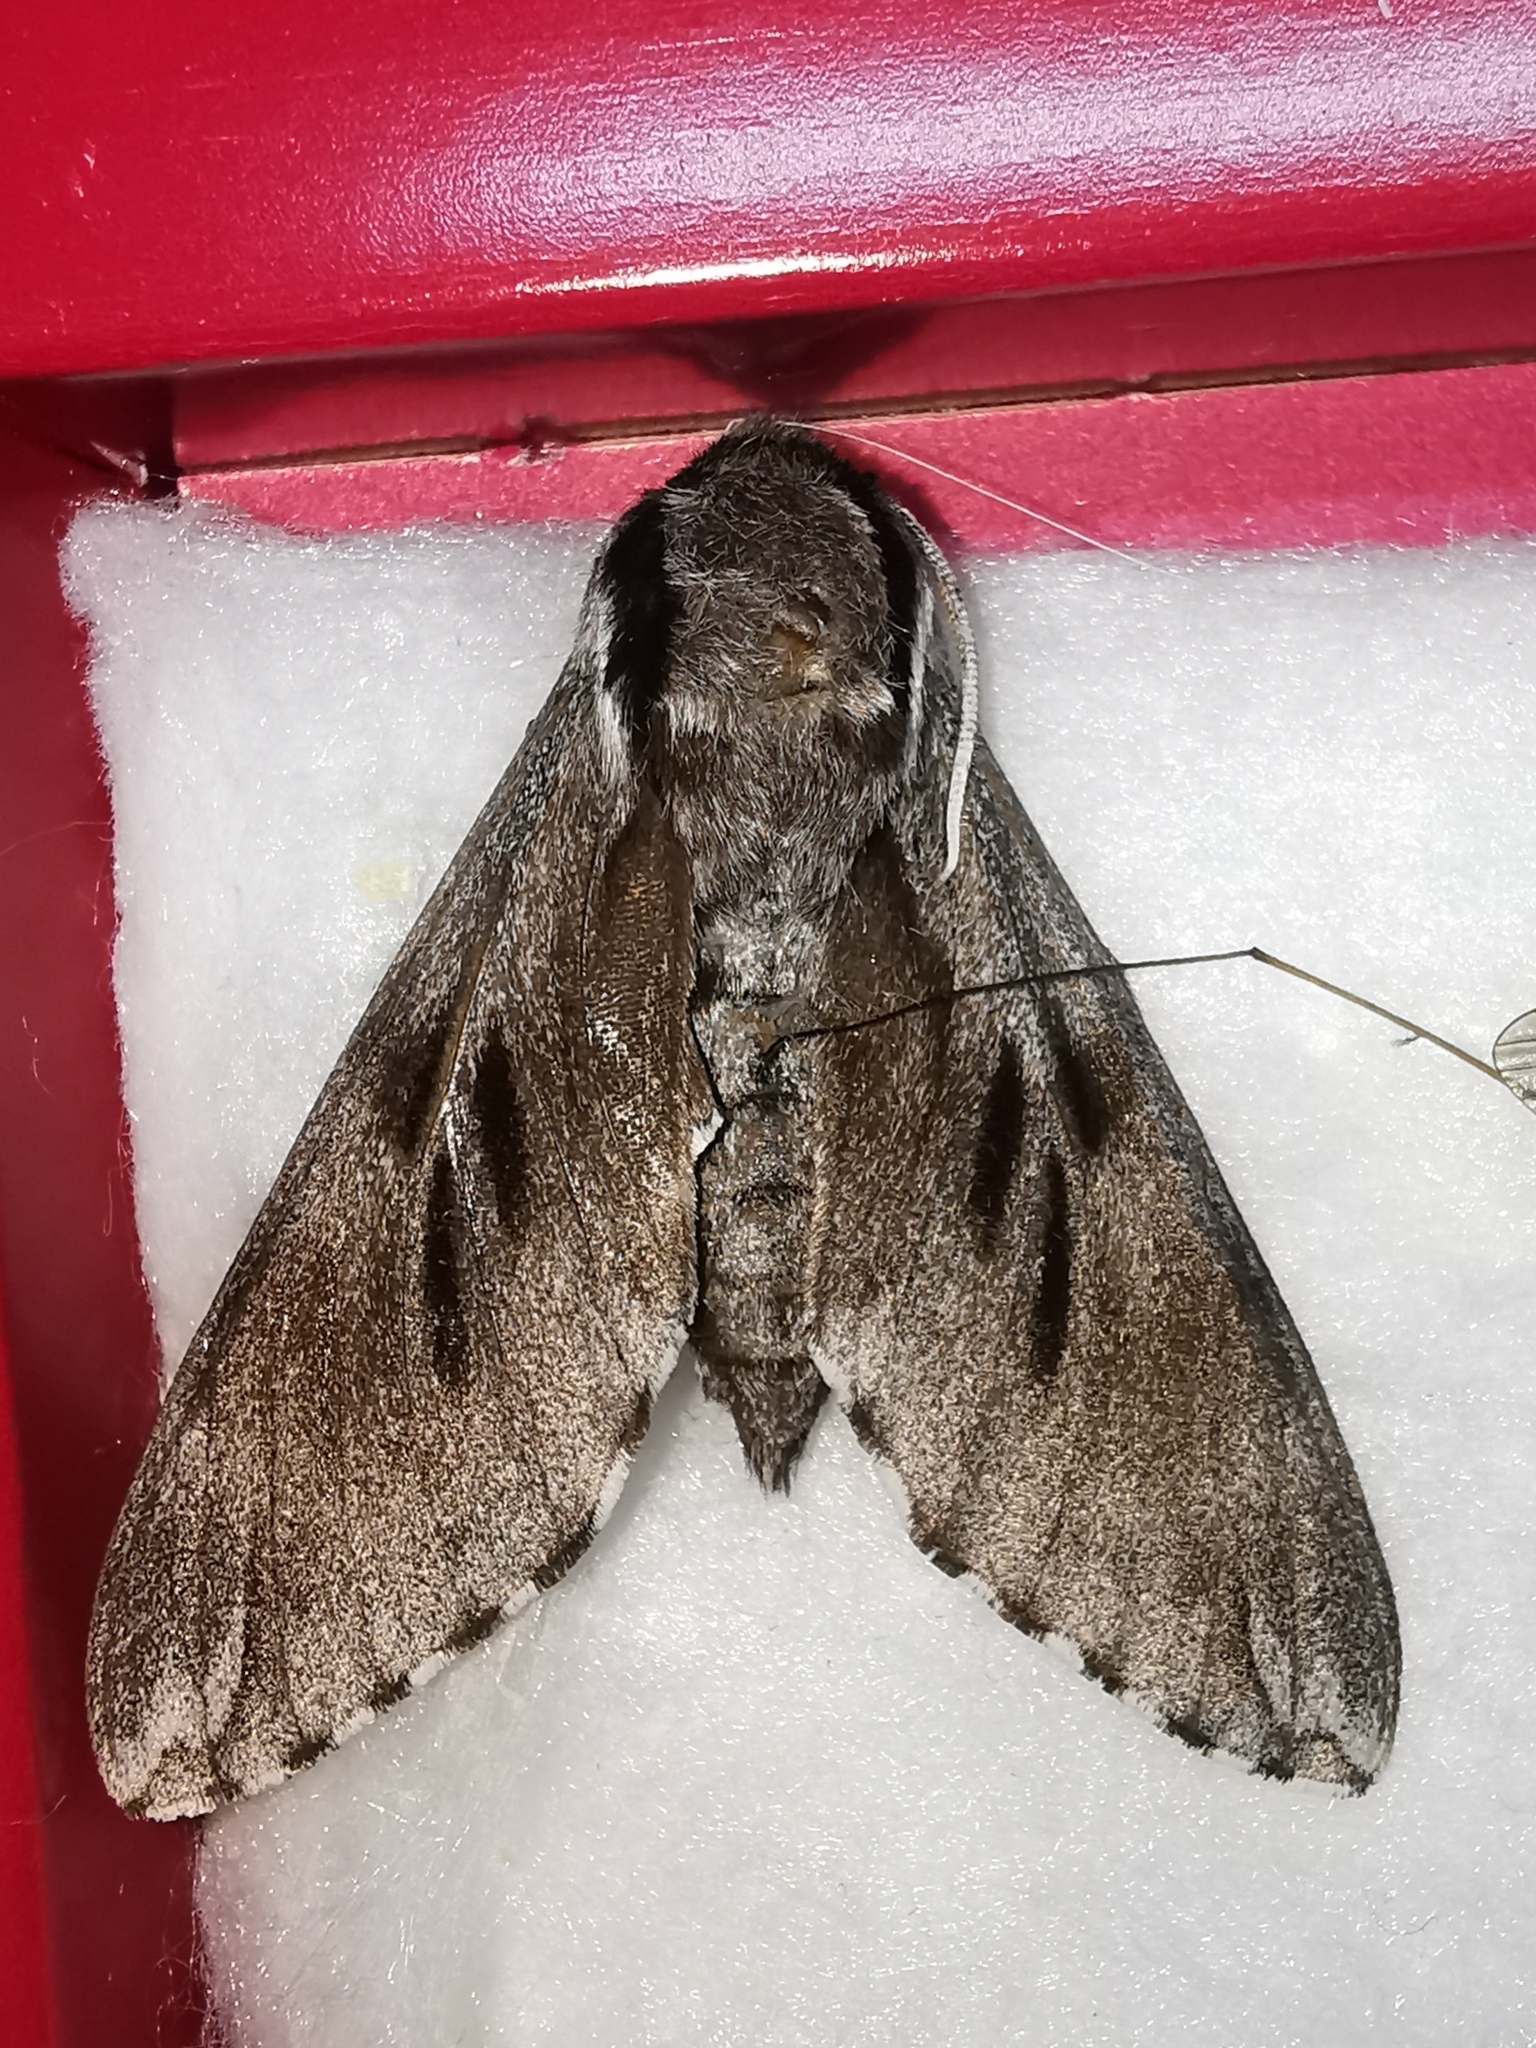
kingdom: Animalia
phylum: Arthropoda
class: Insecta
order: Lepidoptera
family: Sphingidae
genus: Sphinx
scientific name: Sphinx pinastri
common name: Pine hawk-moth
